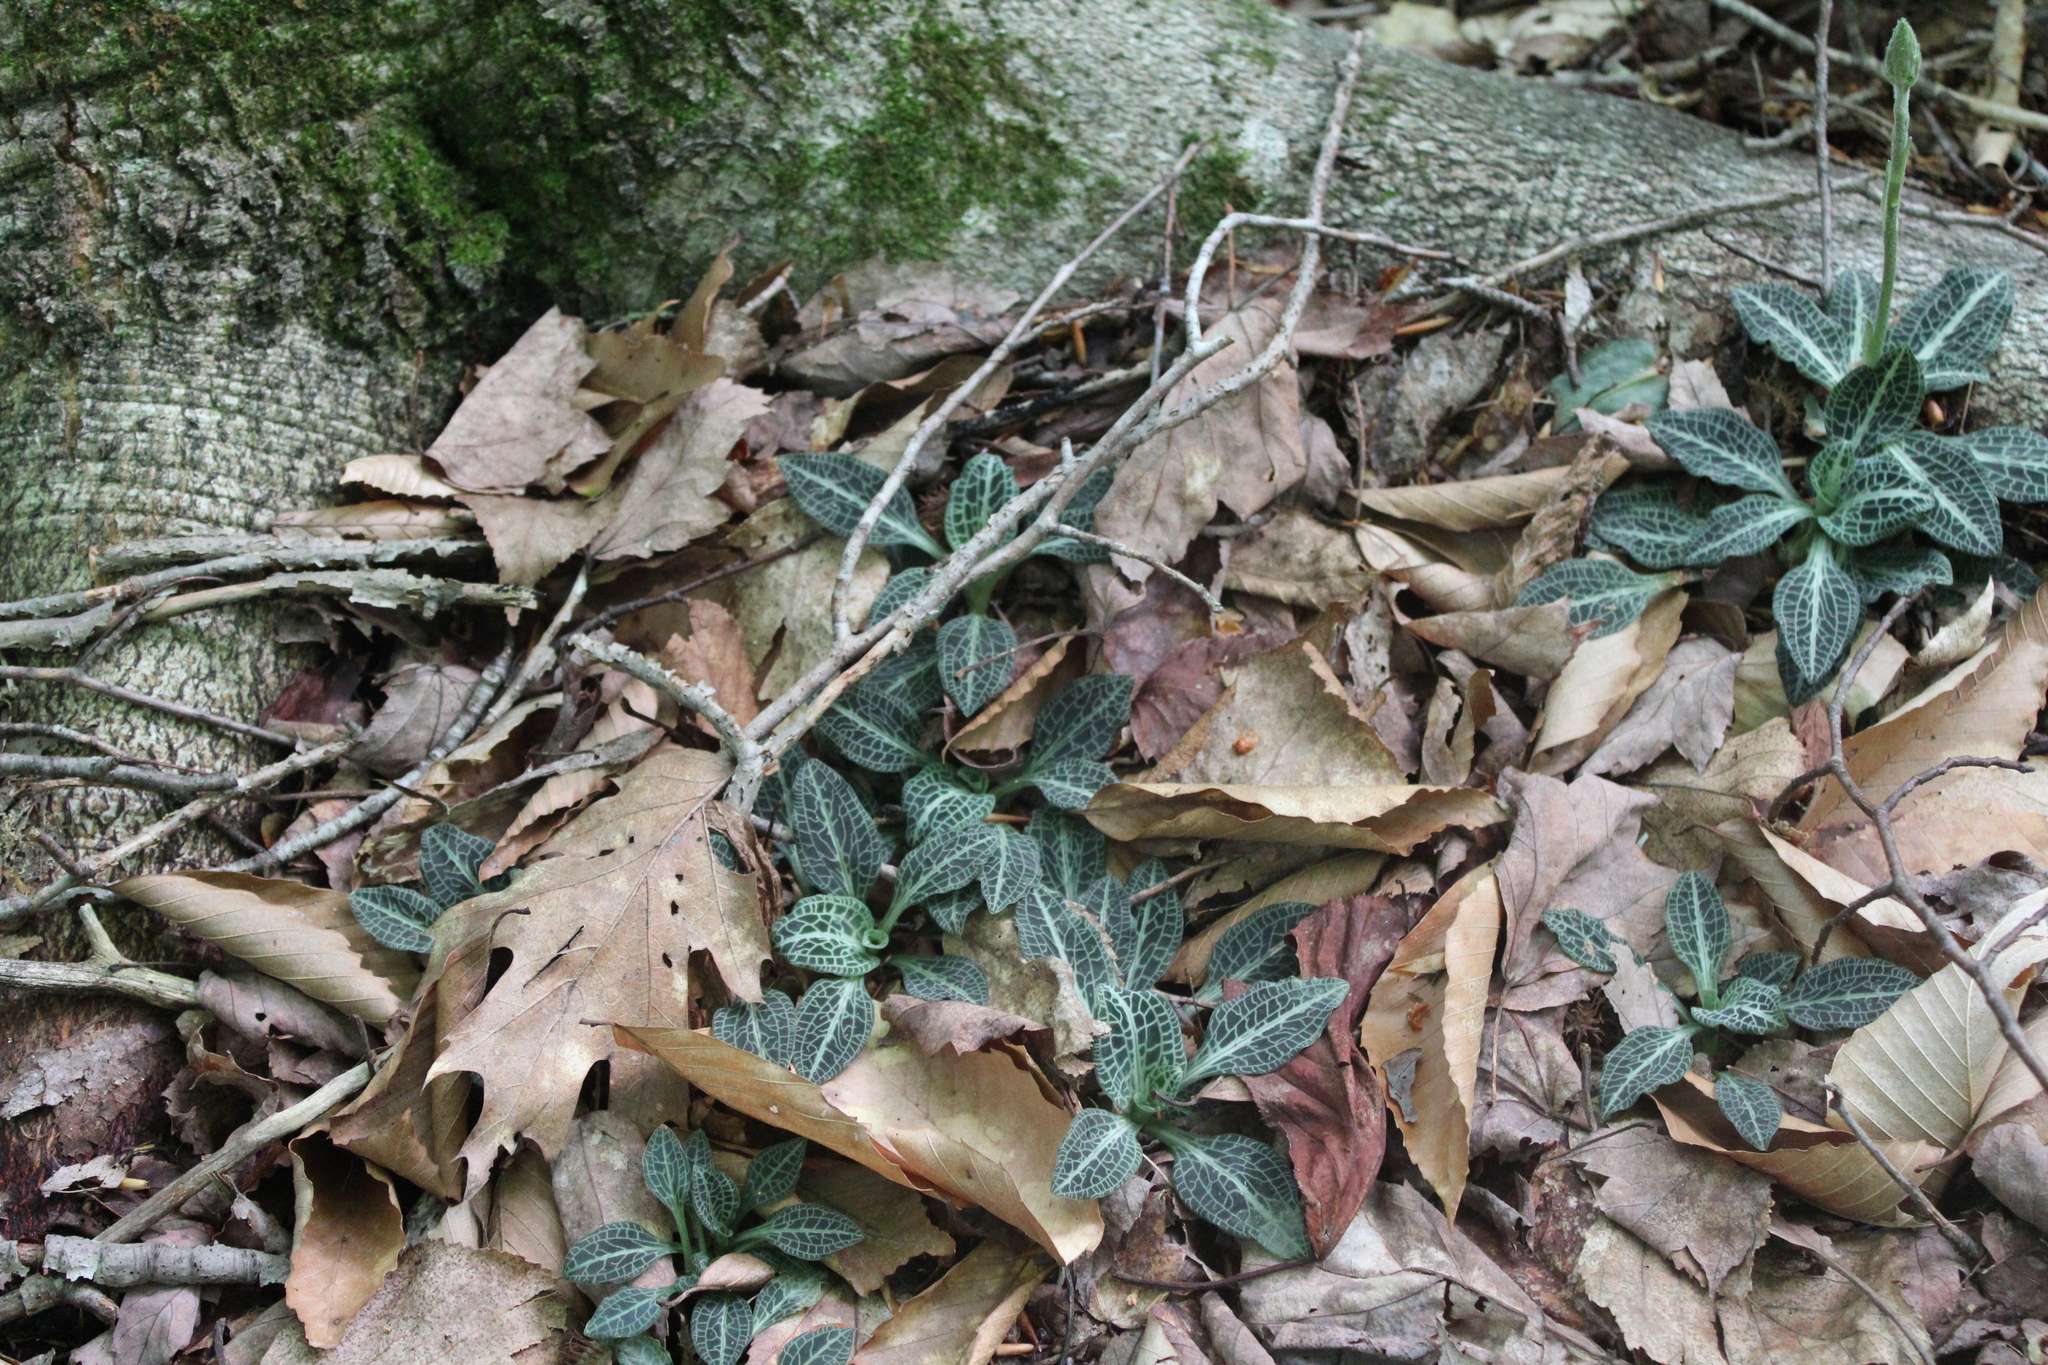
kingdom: Plantae
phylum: Tracheophyta
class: Liliopsida
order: Asparagales
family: Orchidaceae
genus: Goodyera
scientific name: Goodyera pubescens
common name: Downy rattlesnake-plantain
